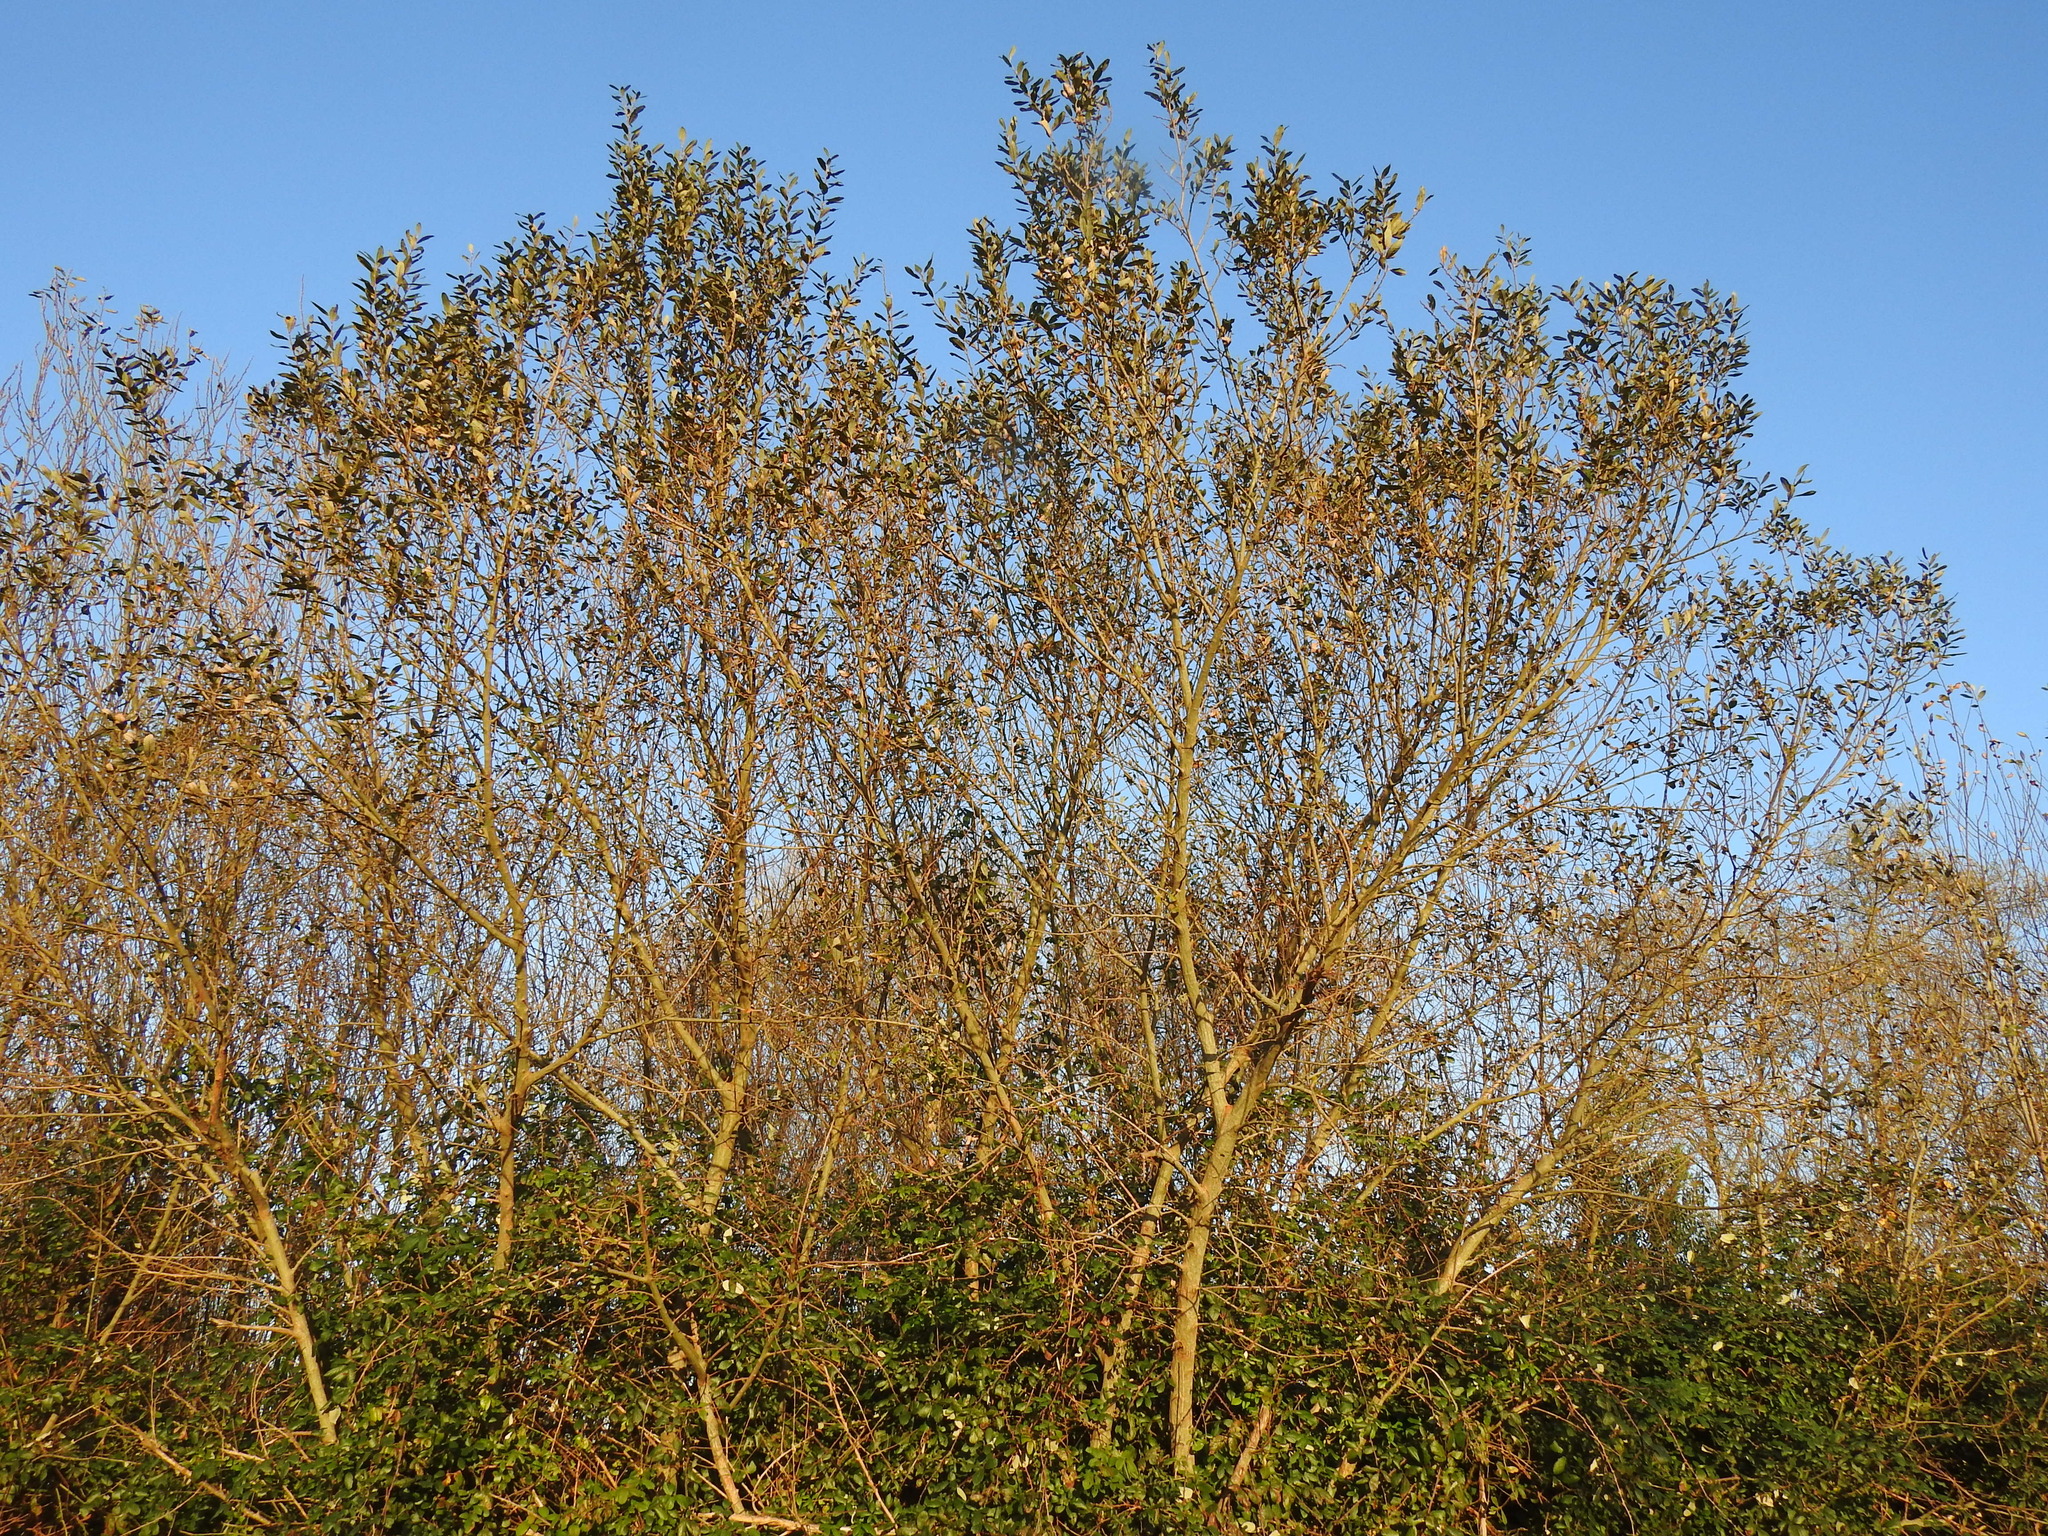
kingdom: Plantae
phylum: Tracheophyta
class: Magnoliopsida
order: Malpighiales
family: Salicaceae
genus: Salix
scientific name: Salix atrocinerea
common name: Rusty willow
